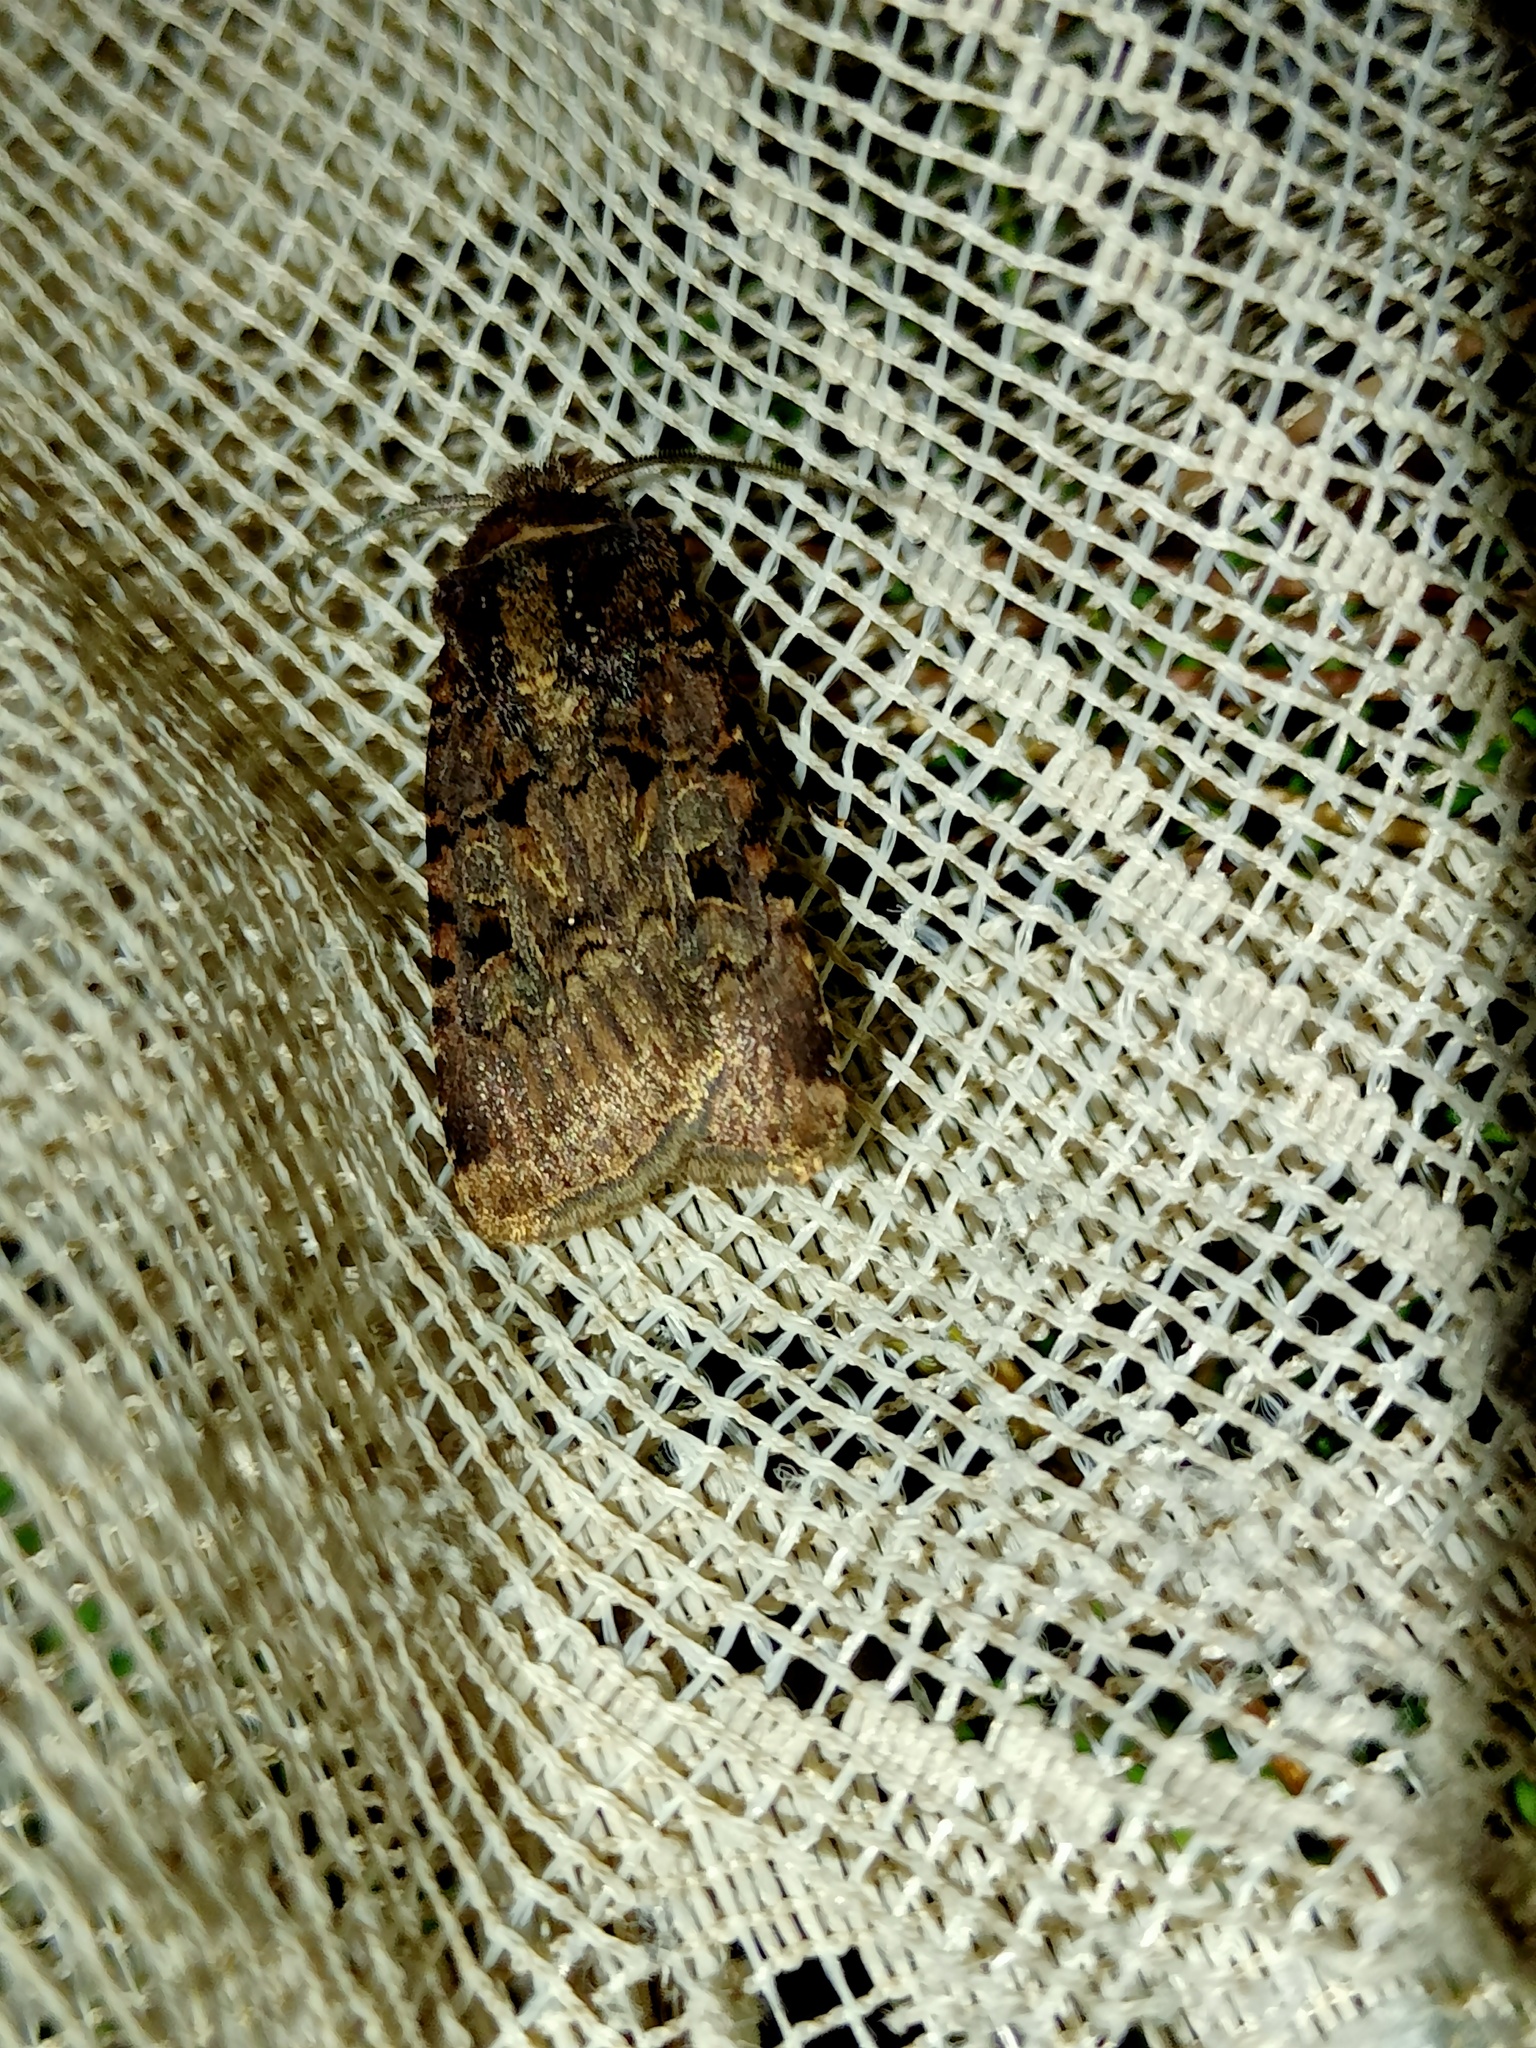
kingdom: Animalia
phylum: Arthropoda
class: Insecta
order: Lepidoptera
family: Noctuidae
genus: Chersotis
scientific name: Chersotis rectangula
